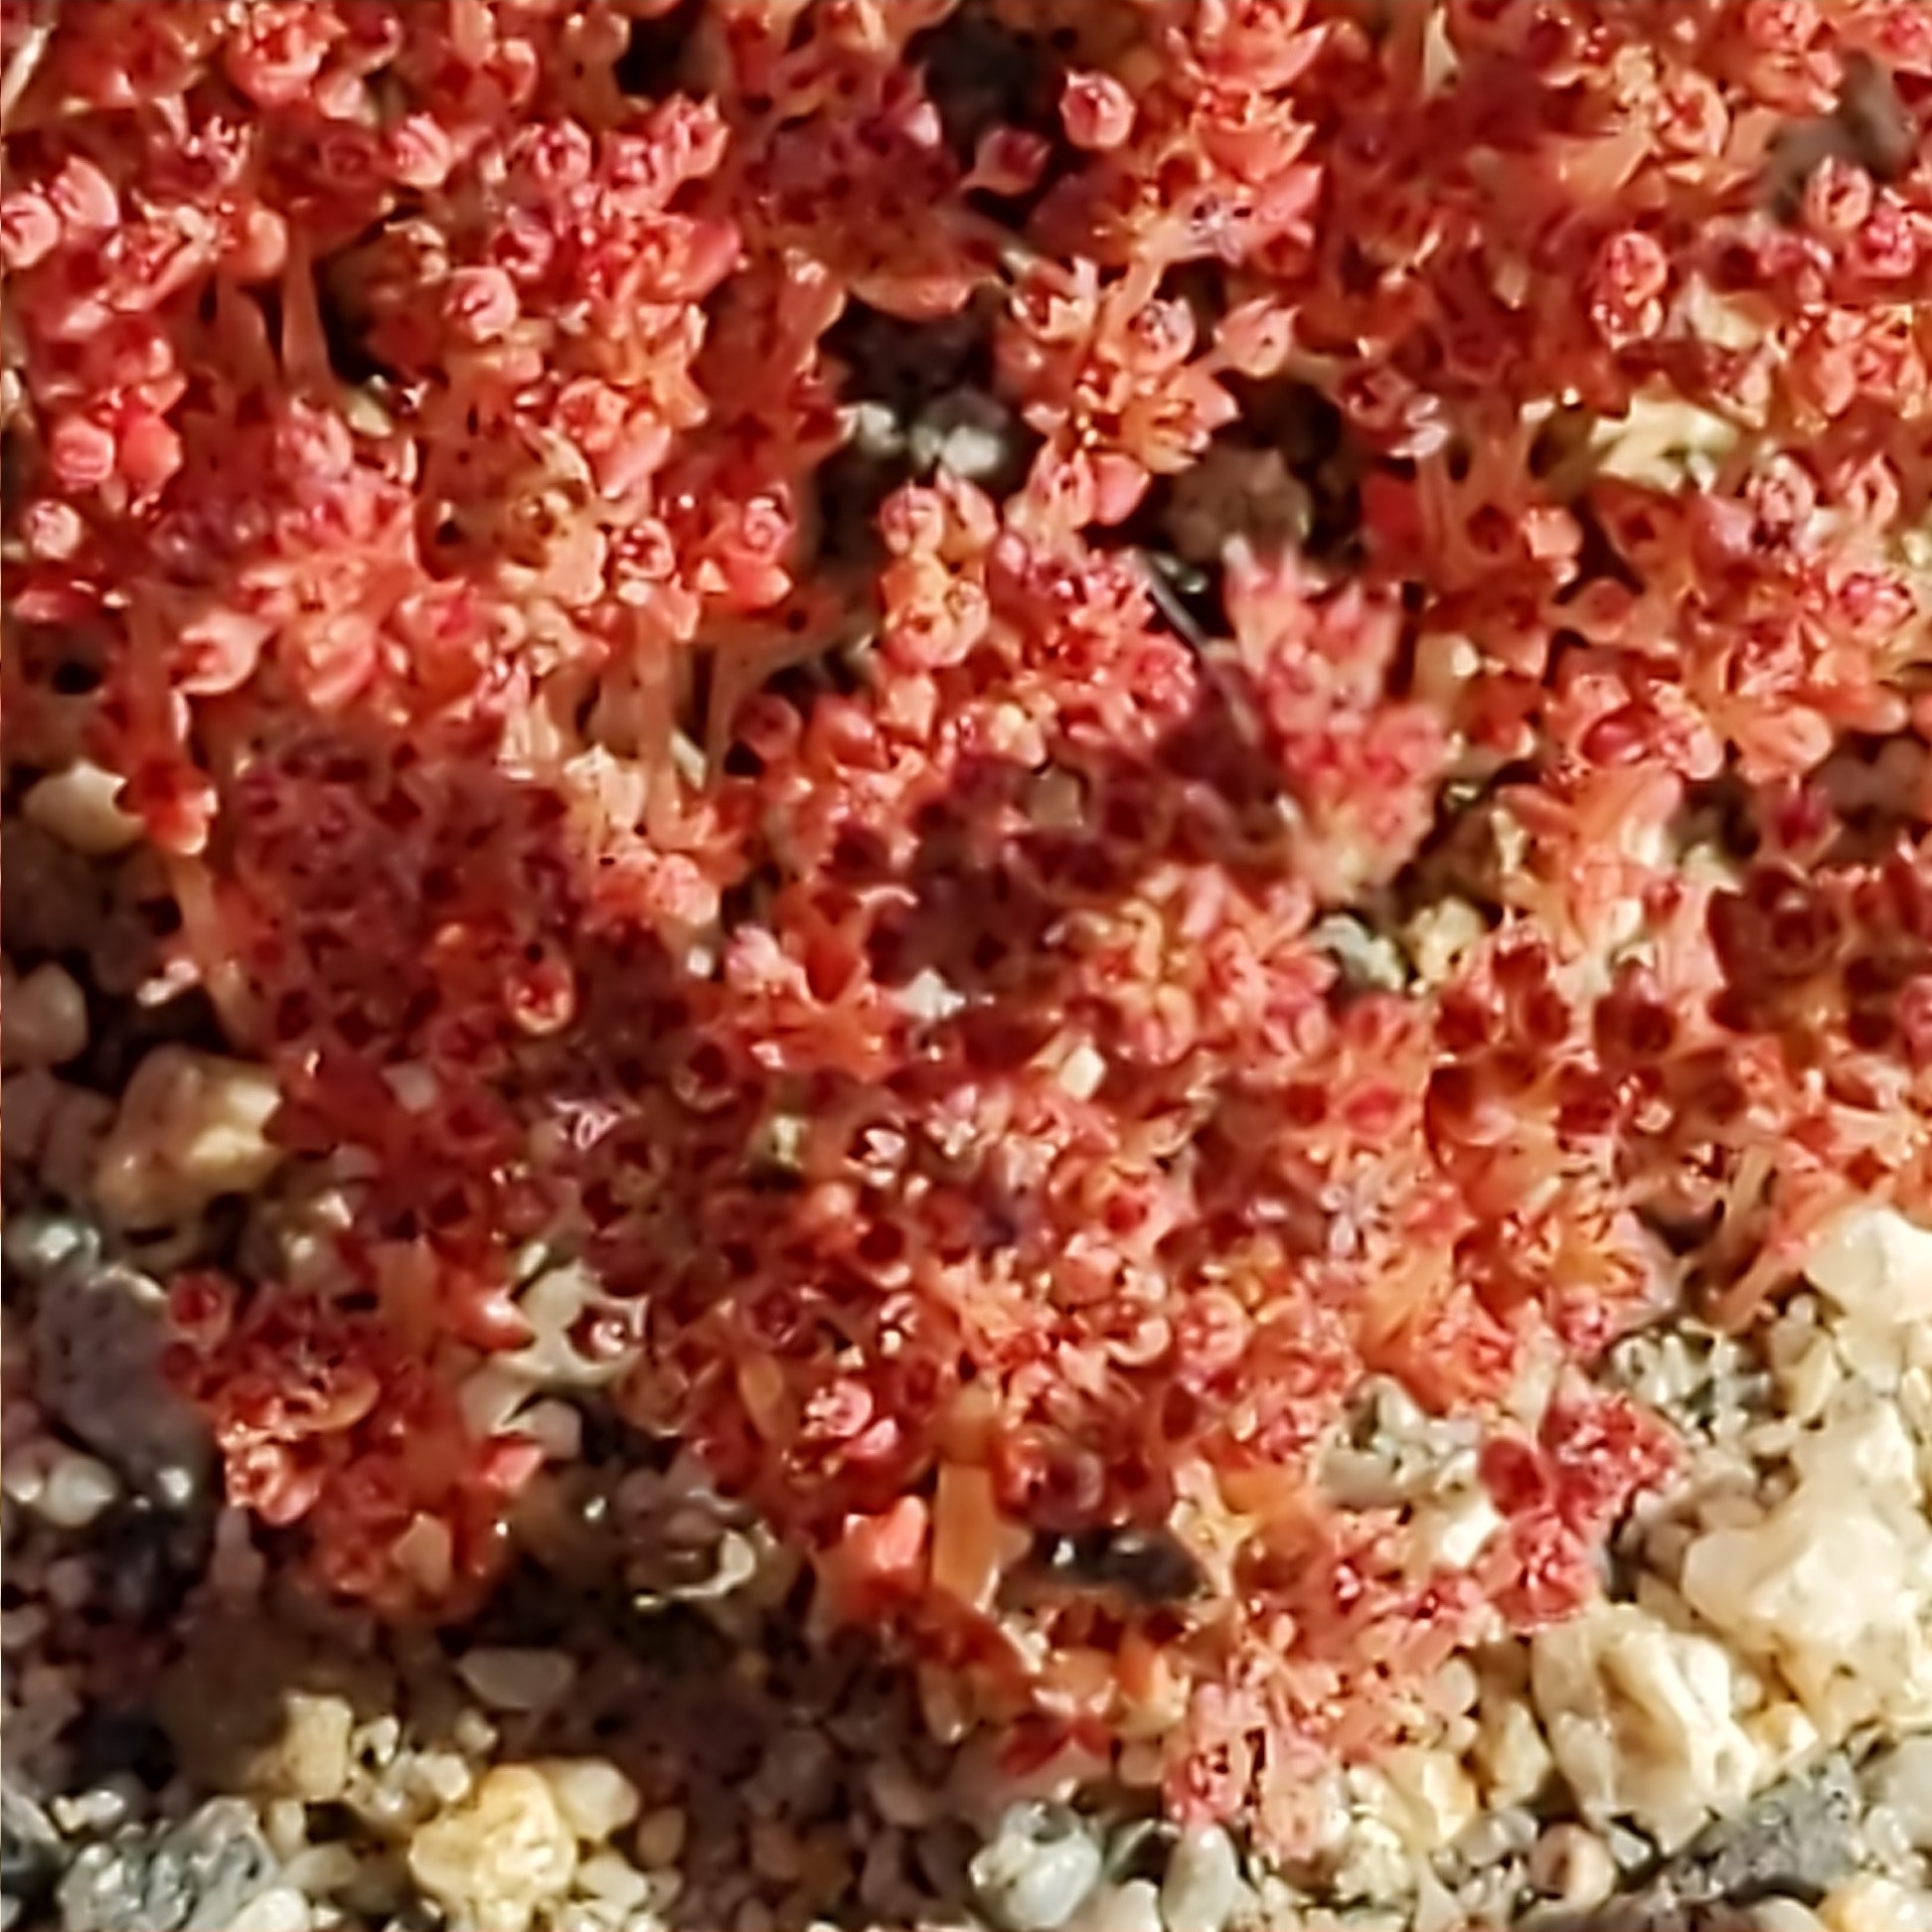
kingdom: Plantae
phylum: Tracheophyta
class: Magnoliopsida
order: Saxifragales
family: Crassulaceae
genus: Crassula
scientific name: Crassula tillaea
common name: Mossy stonecrop
